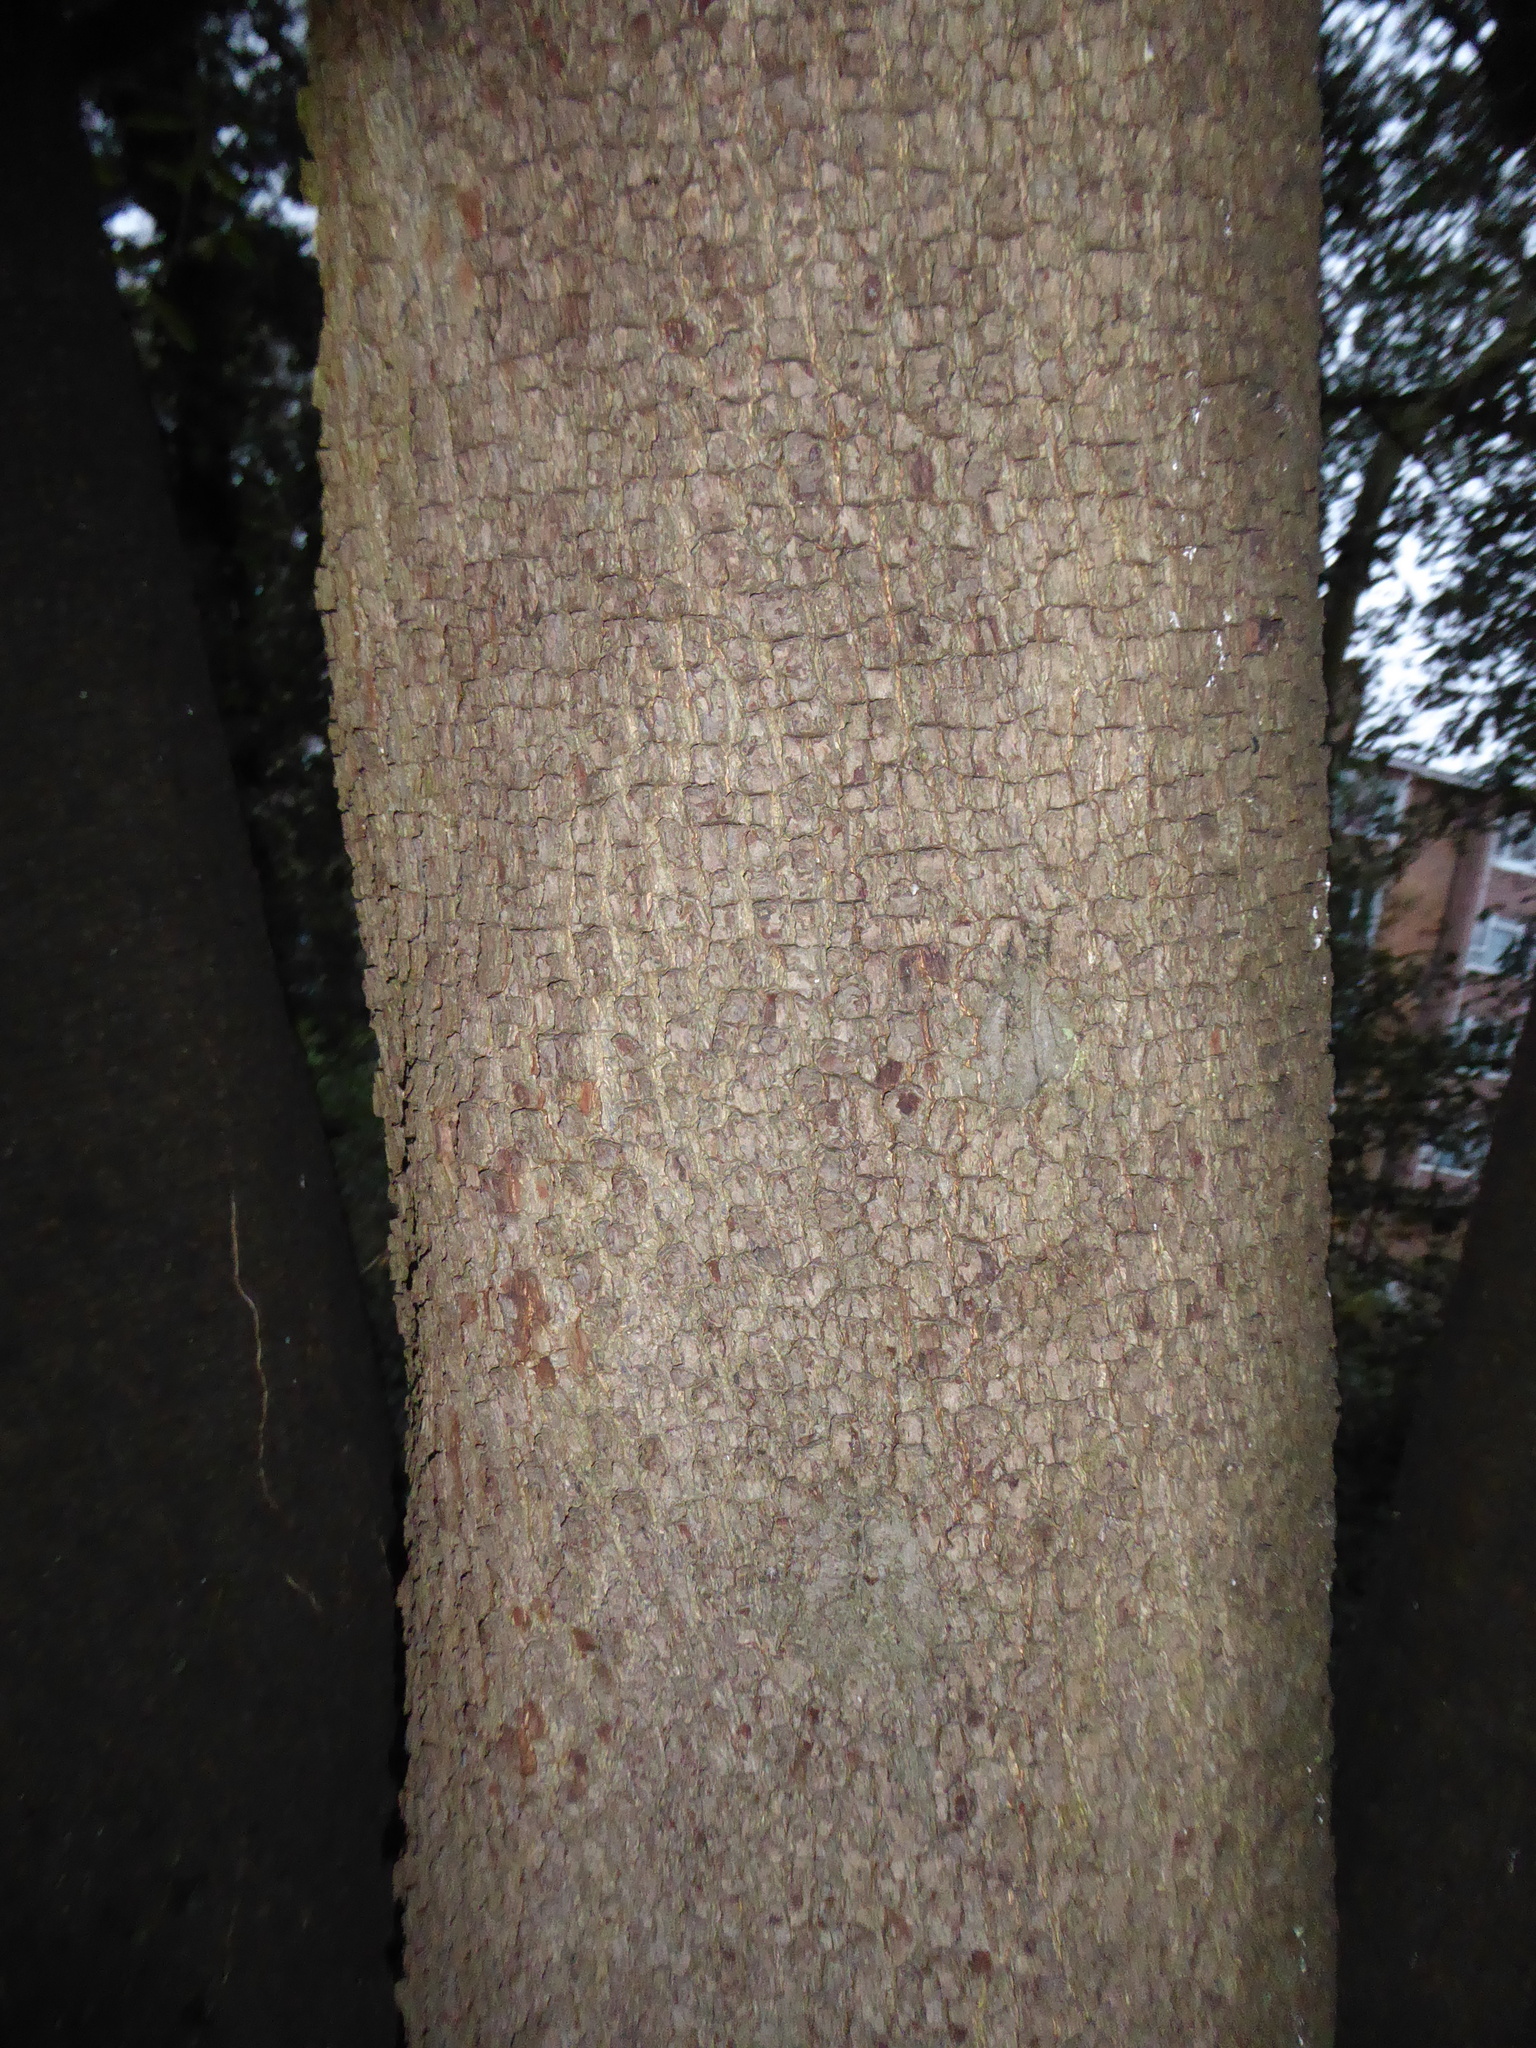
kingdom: Plantae
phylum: Tracheophyta
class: Magnoliopsida
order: Fagales
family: Fagaceae
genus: Quercus
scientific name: Quercus ilex
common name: Evergreen oak
